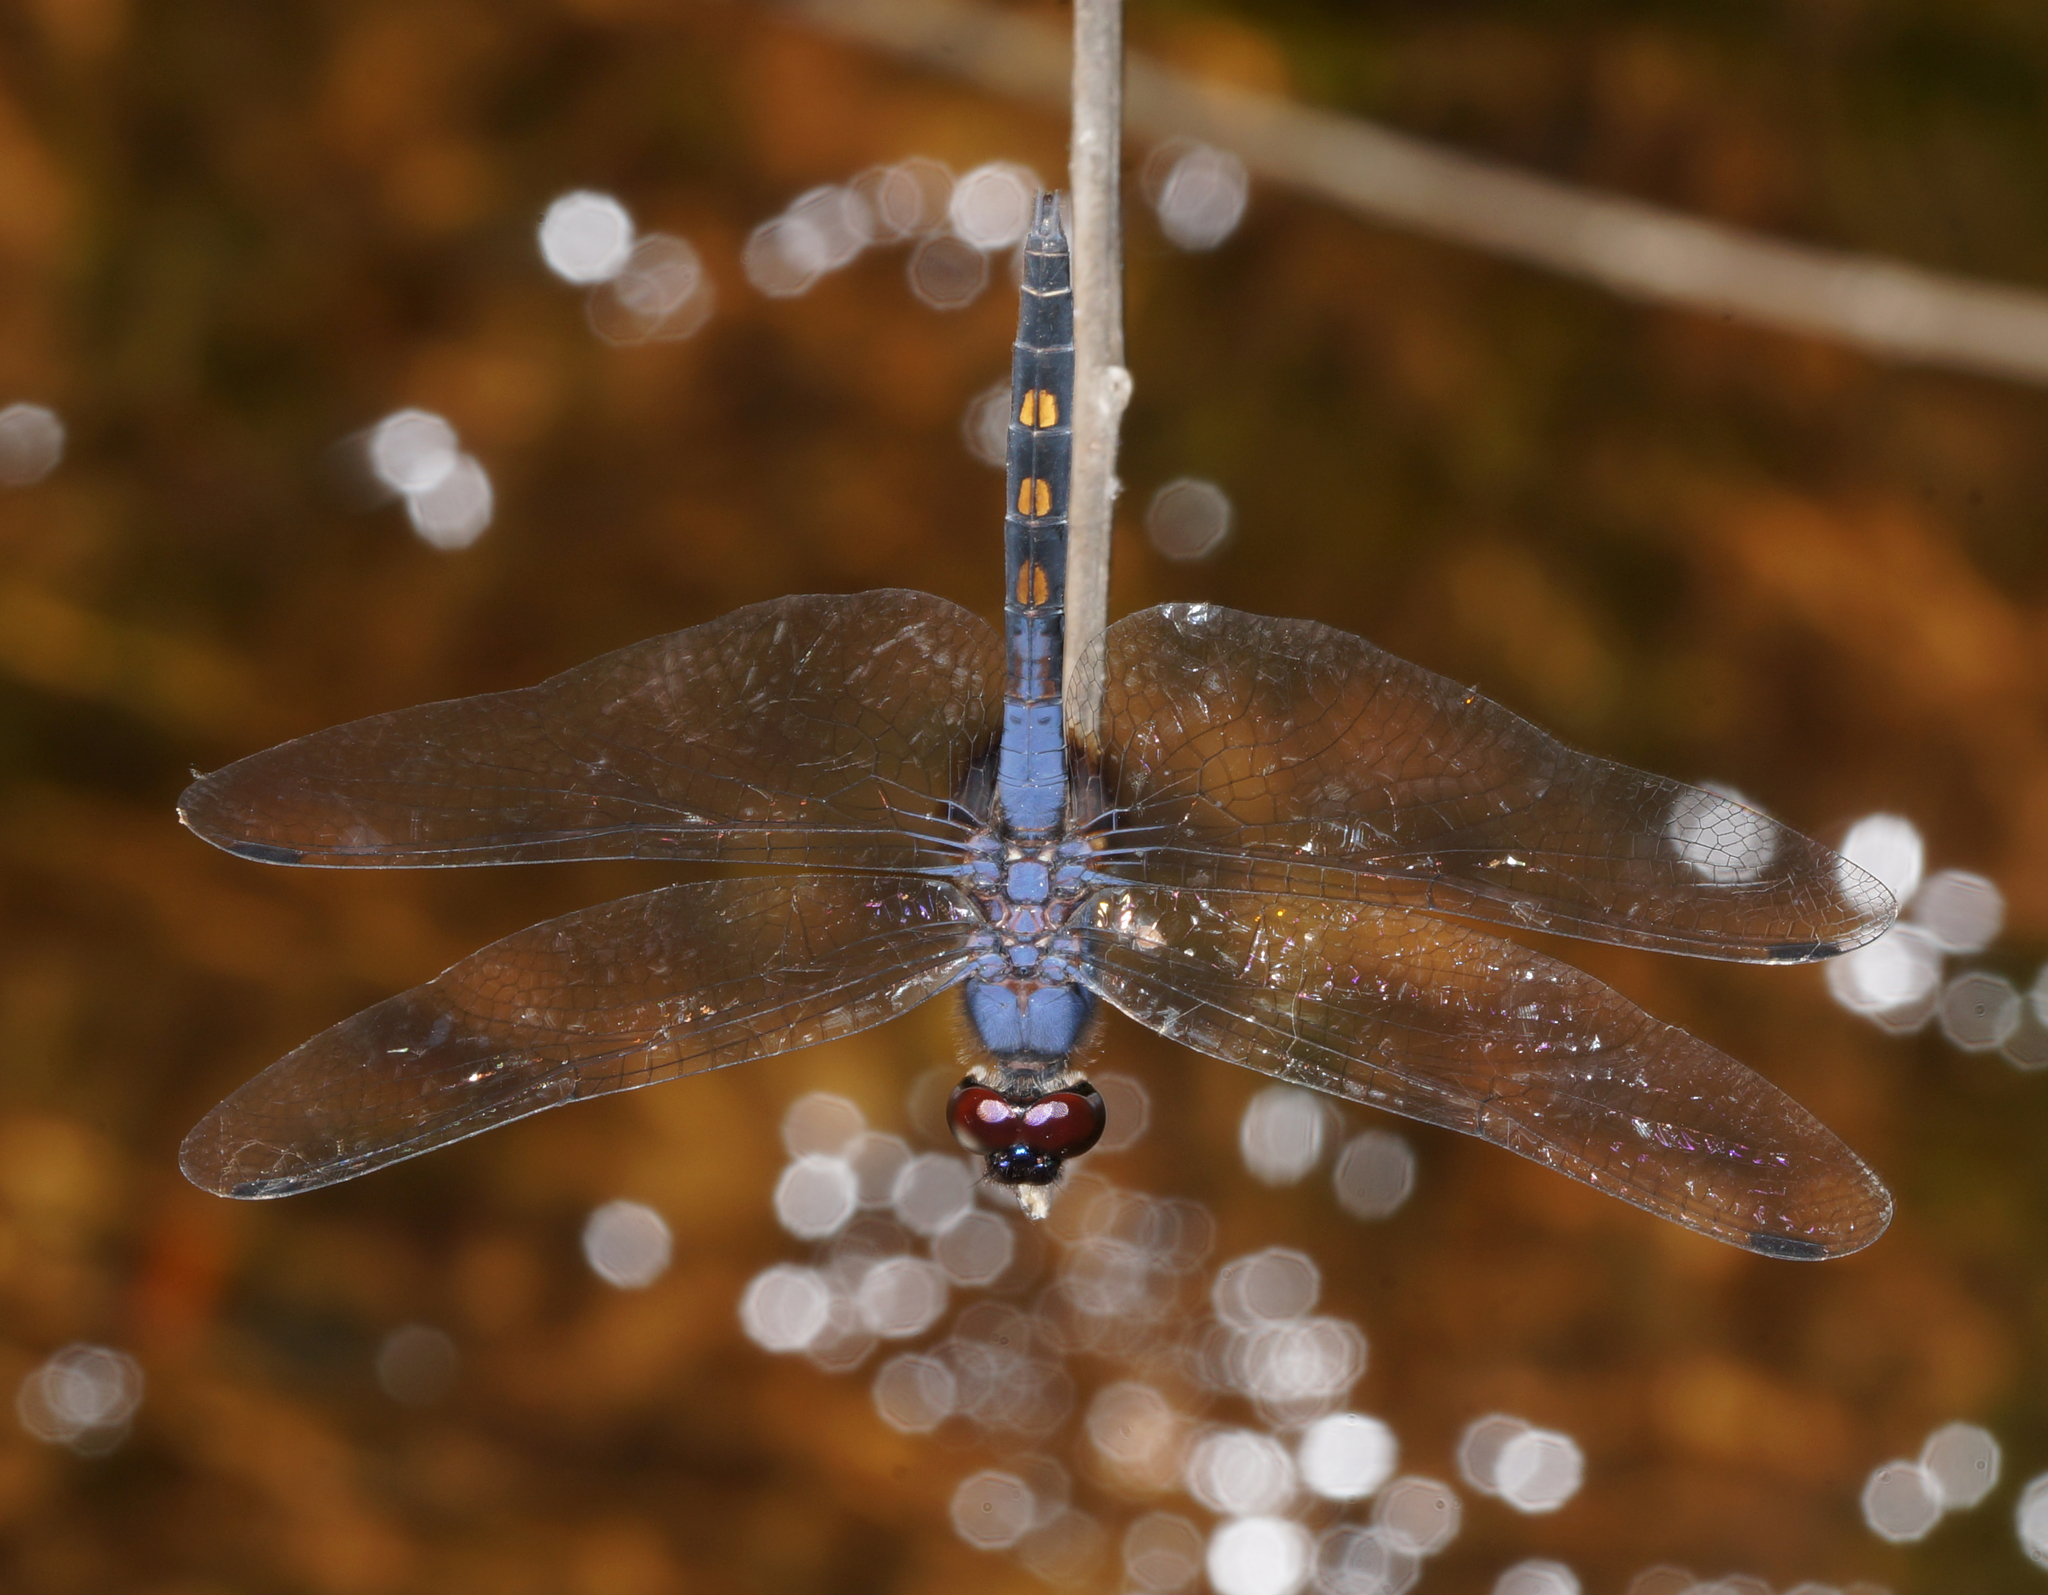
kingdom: Animalia
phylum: Arthropoda
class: Insecta
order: Odonata
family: Libellulidae
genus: Trithemis
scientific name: Trithemis festiva
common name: Indigo dropwing
